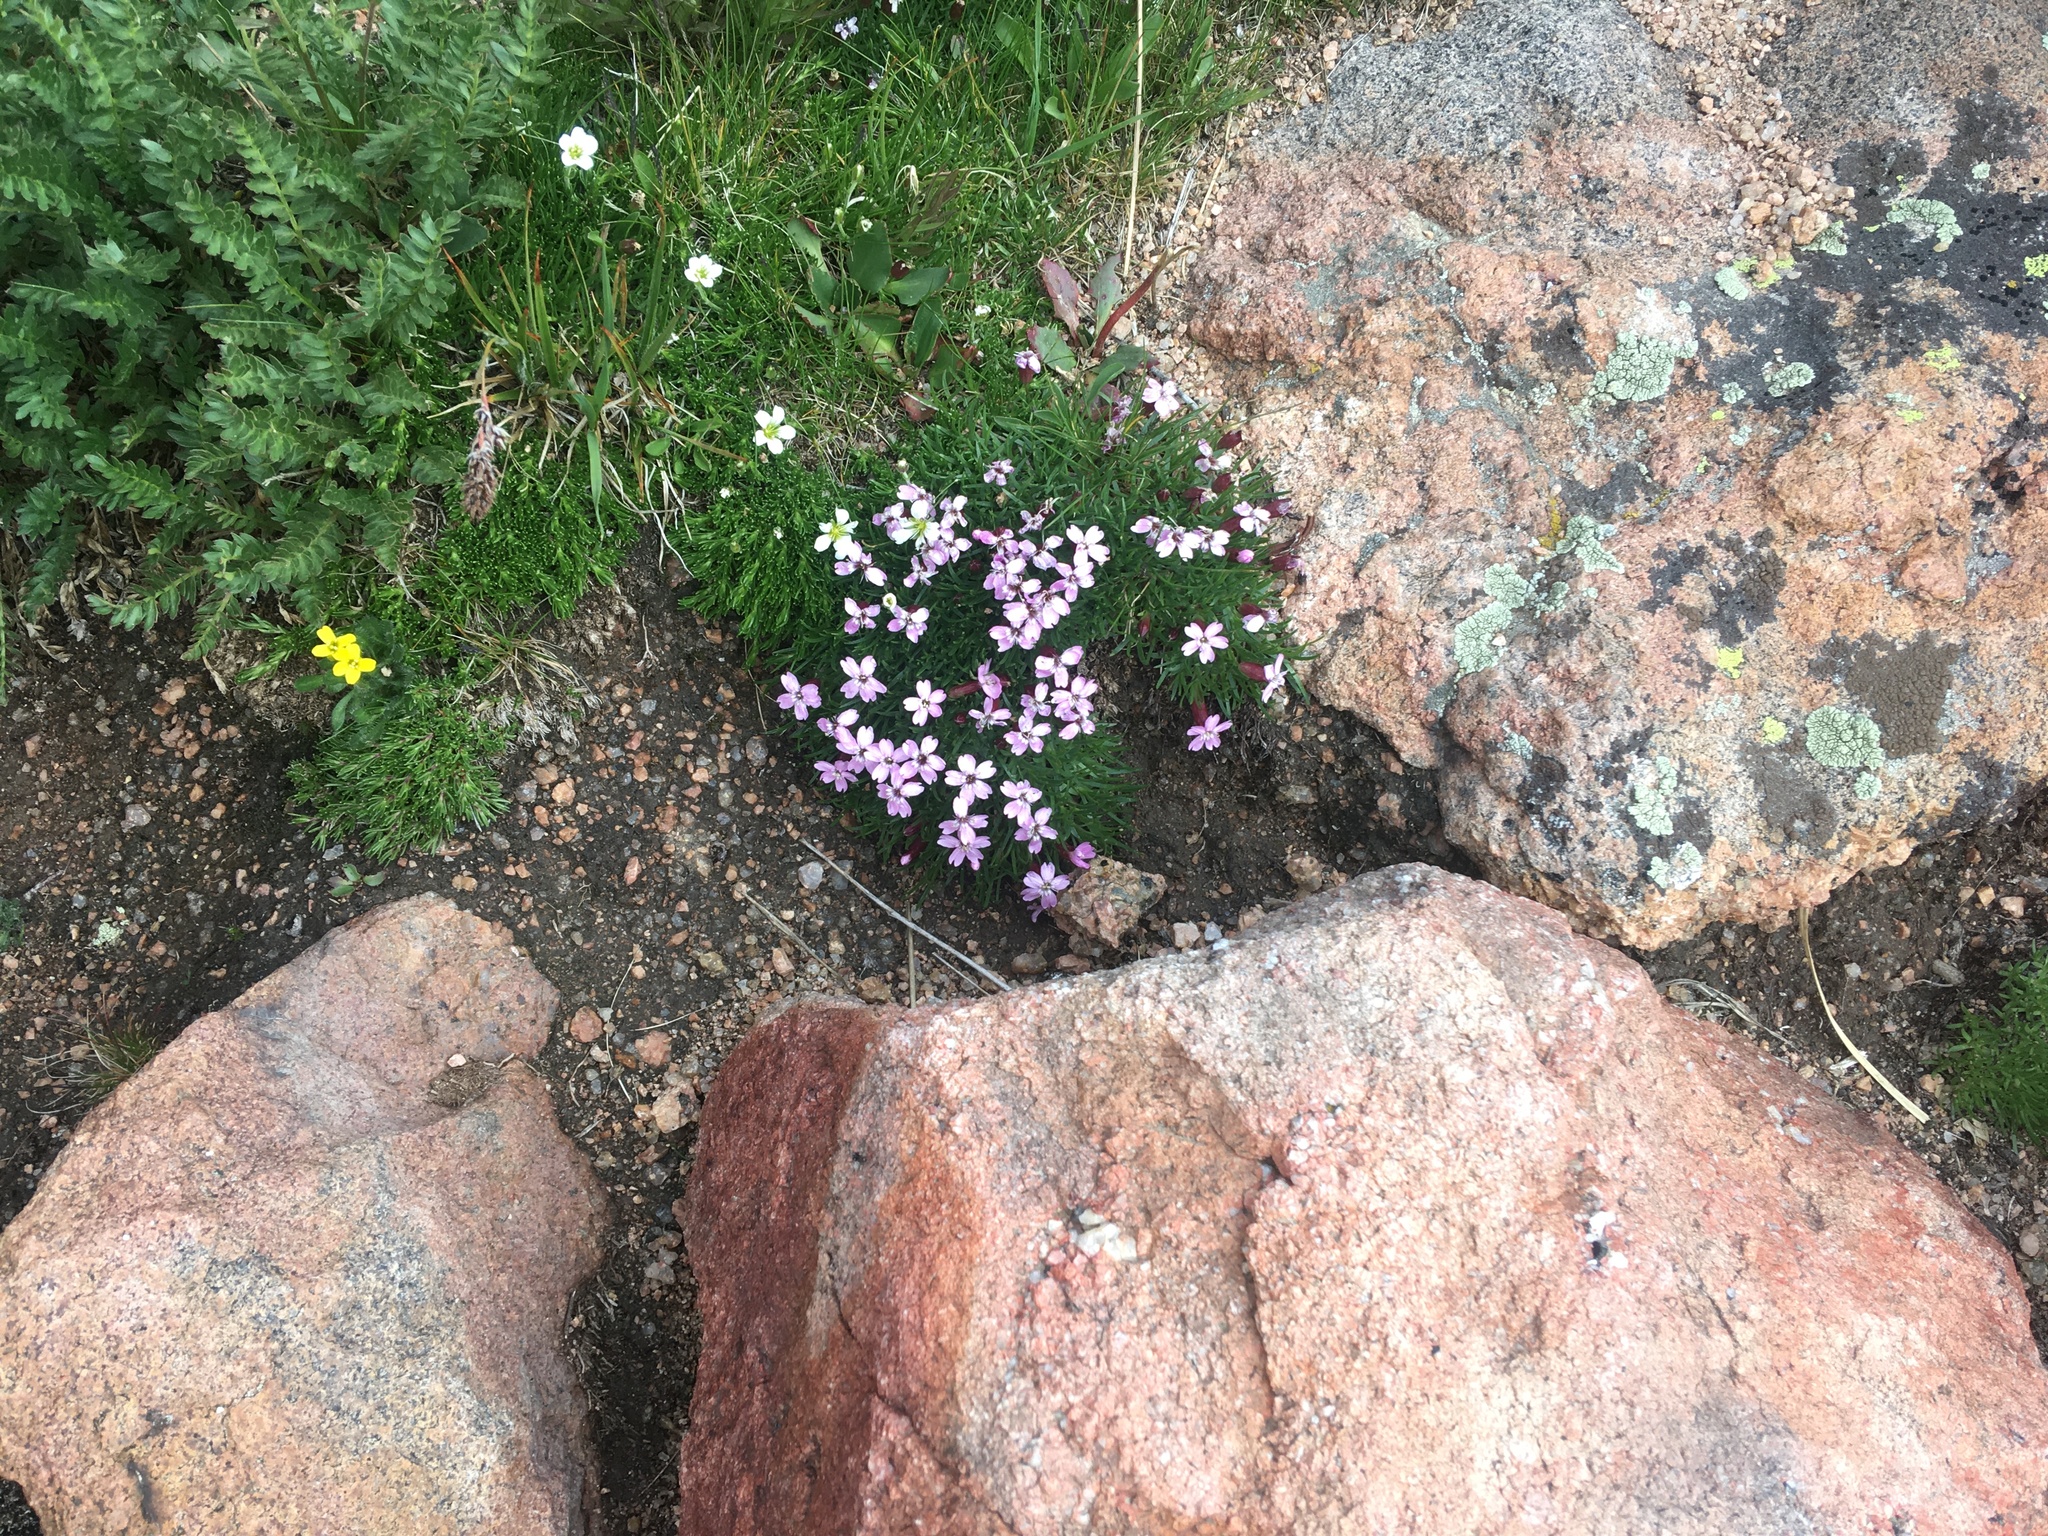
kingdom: Plantae
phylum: Tracheophyta
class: Magnoliopsida
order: Caryophyllales
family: Caryophyllaceae
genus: Silene
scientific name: Silene acaulis
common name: Moss campion
